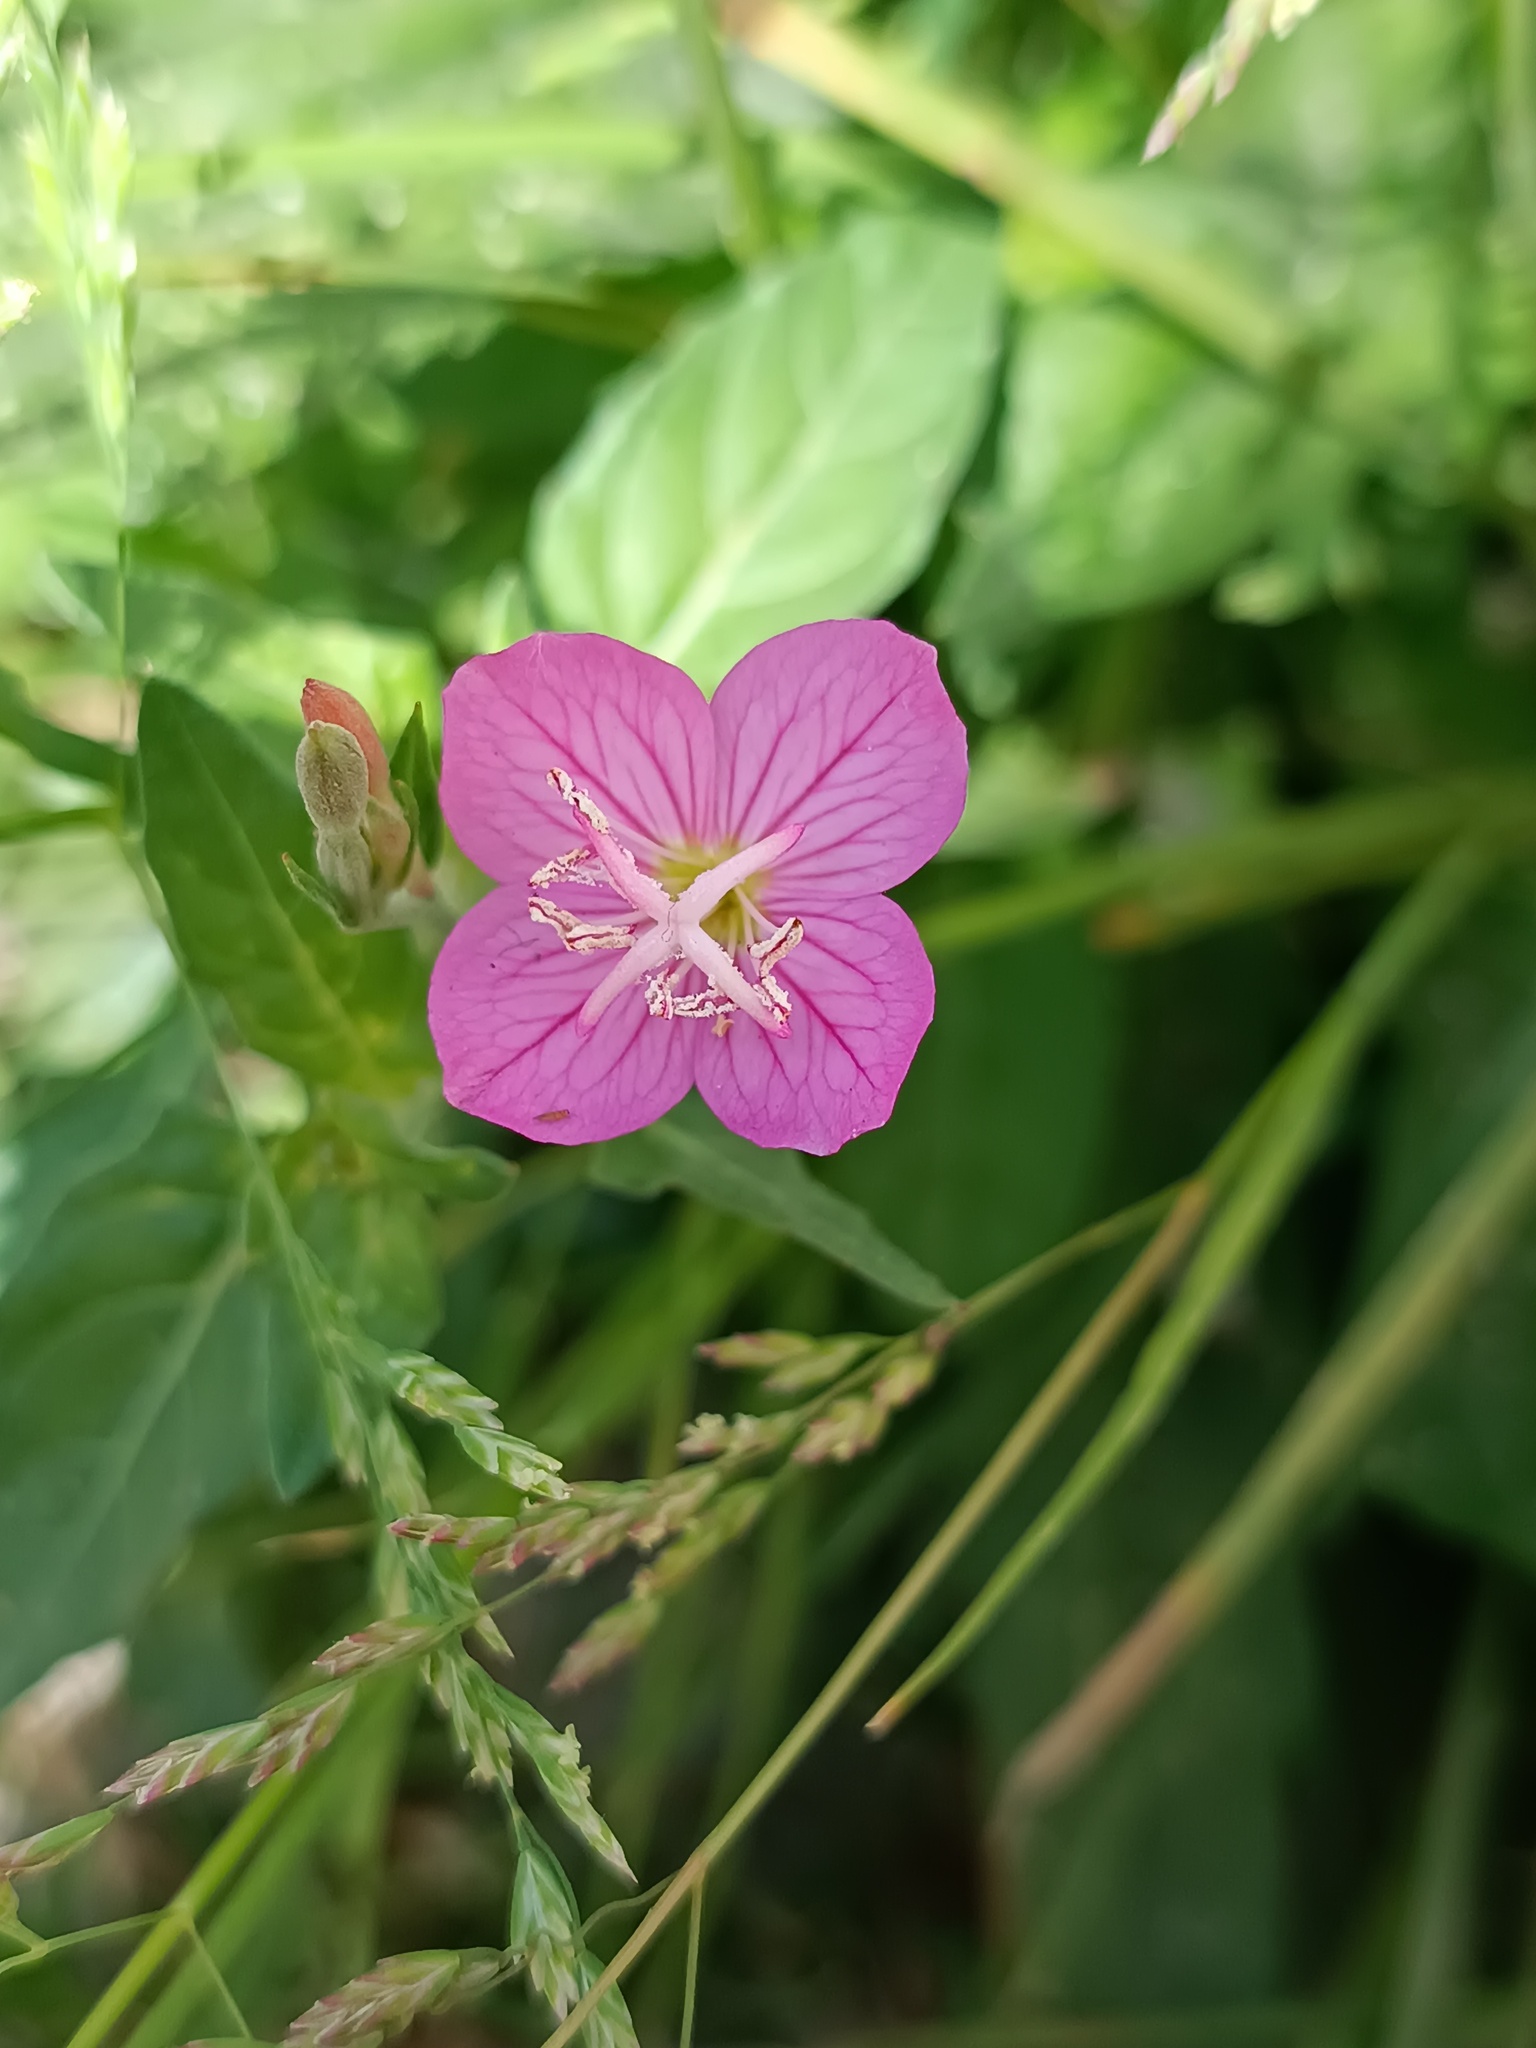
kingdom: Plantae
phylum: Tracheophyta
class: Magnoliopsida
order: Myrtales
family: Onagraceae
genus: Oenothera
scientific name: Oenothera rosea
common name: Rosy evening-primrose
